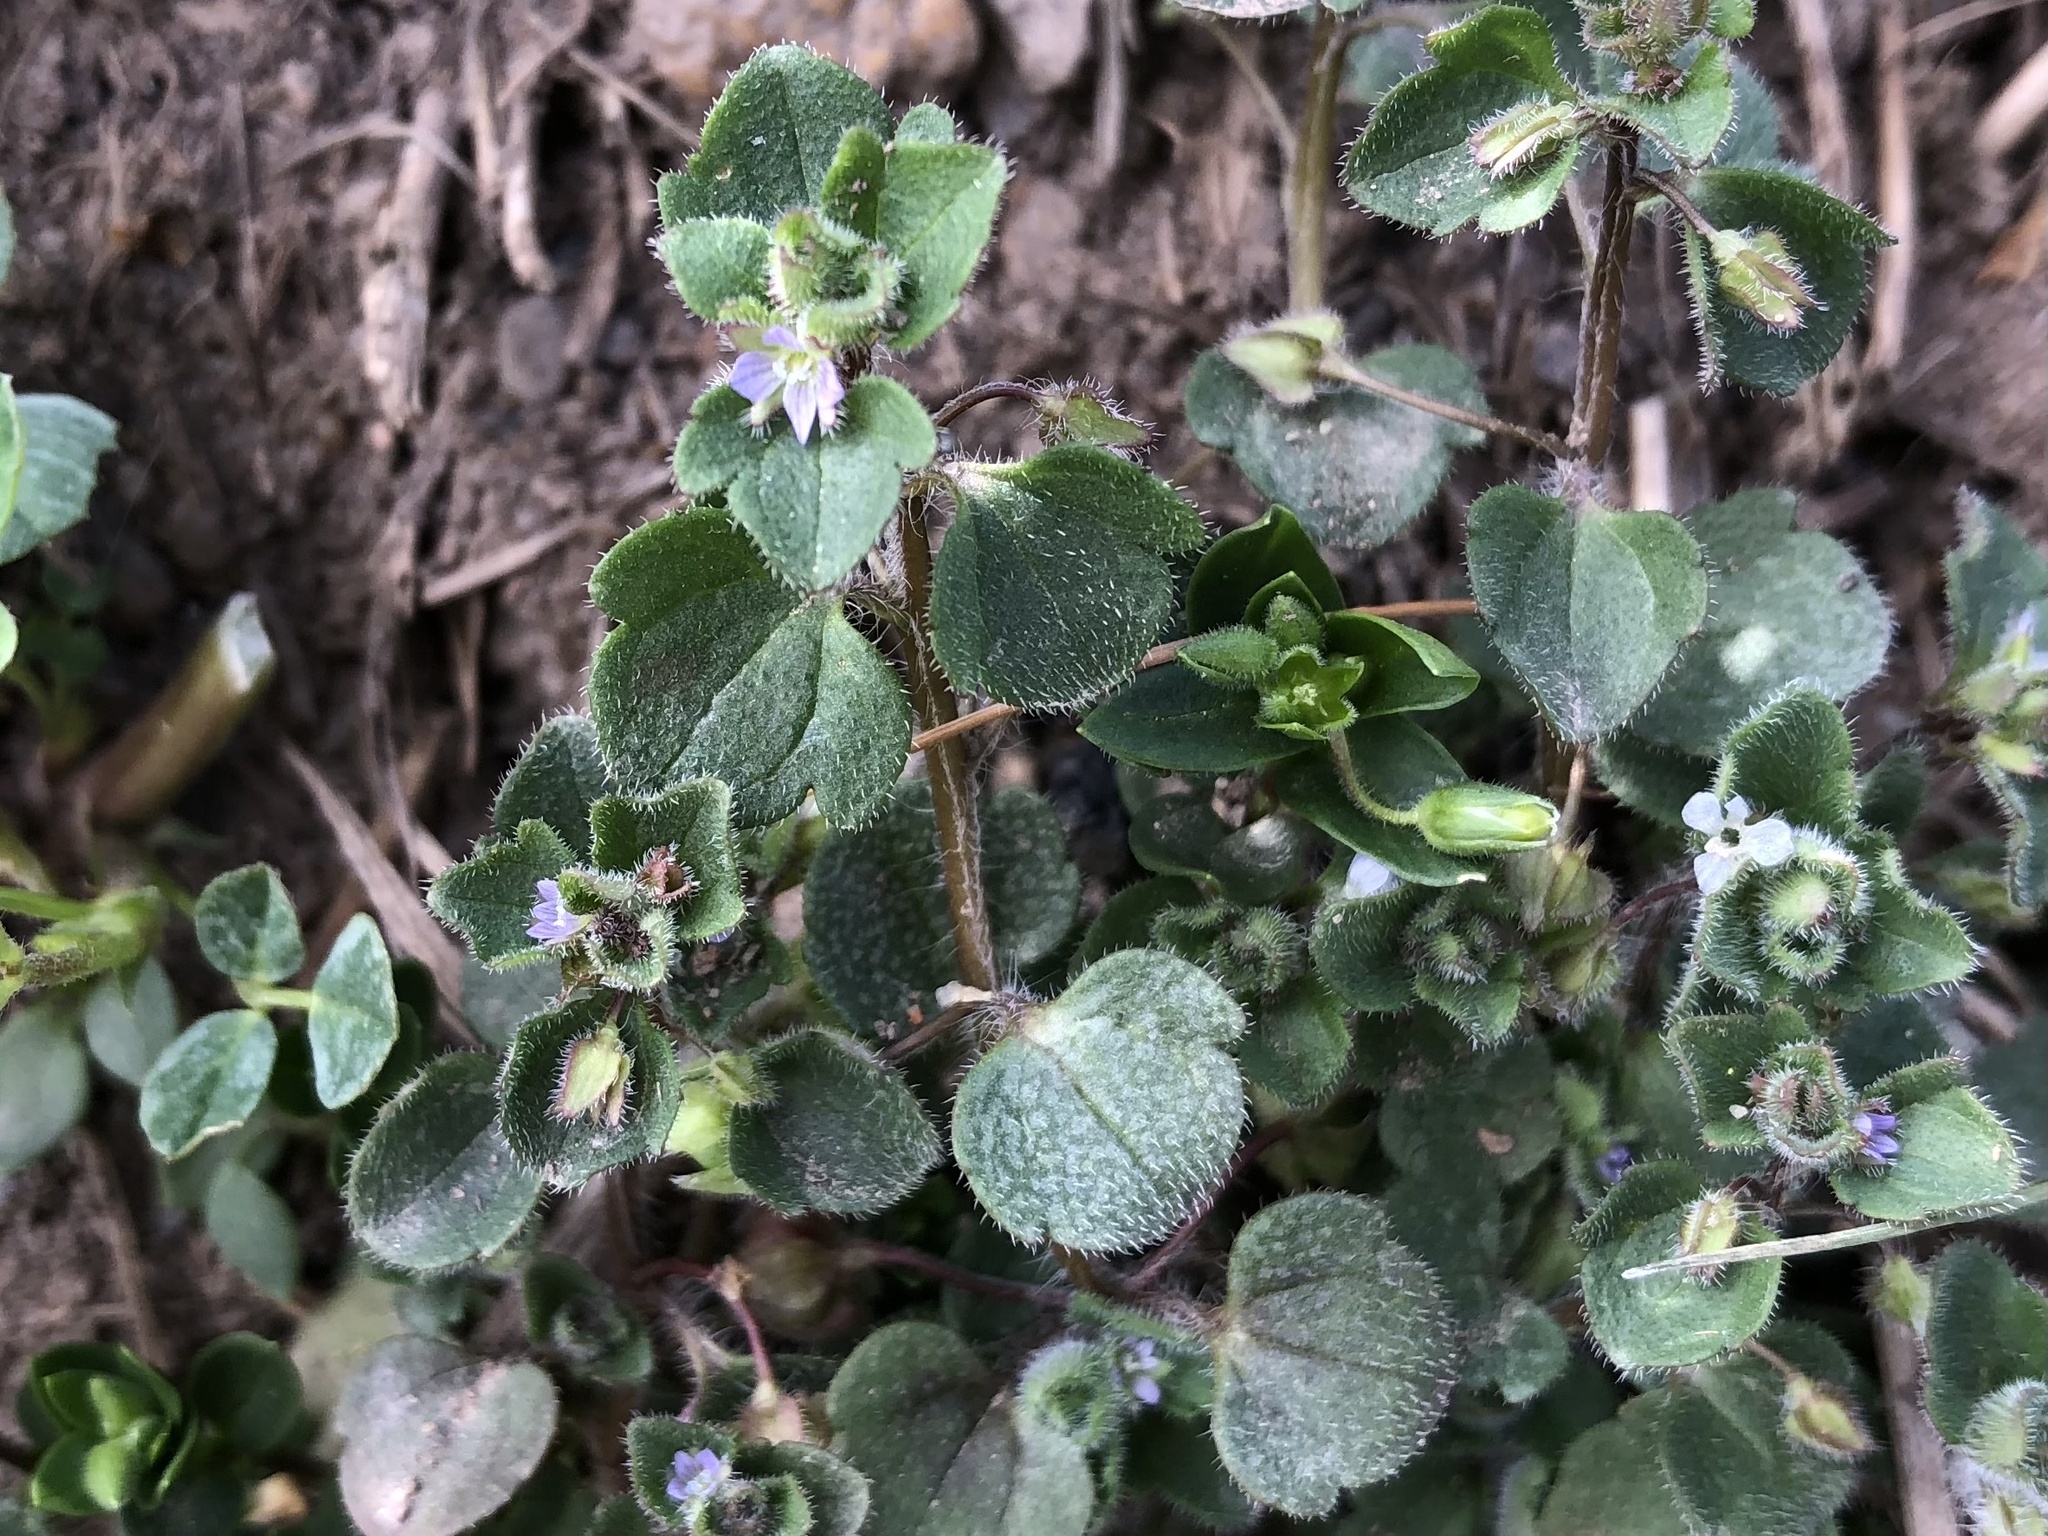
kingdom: Plantae
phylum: Tracheophyta
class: Magnoliopsida
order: Lamiales
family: Plantaginaceae
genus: Veronica
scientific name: Veronica sublobata
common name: False ivy-leaved speedwell
